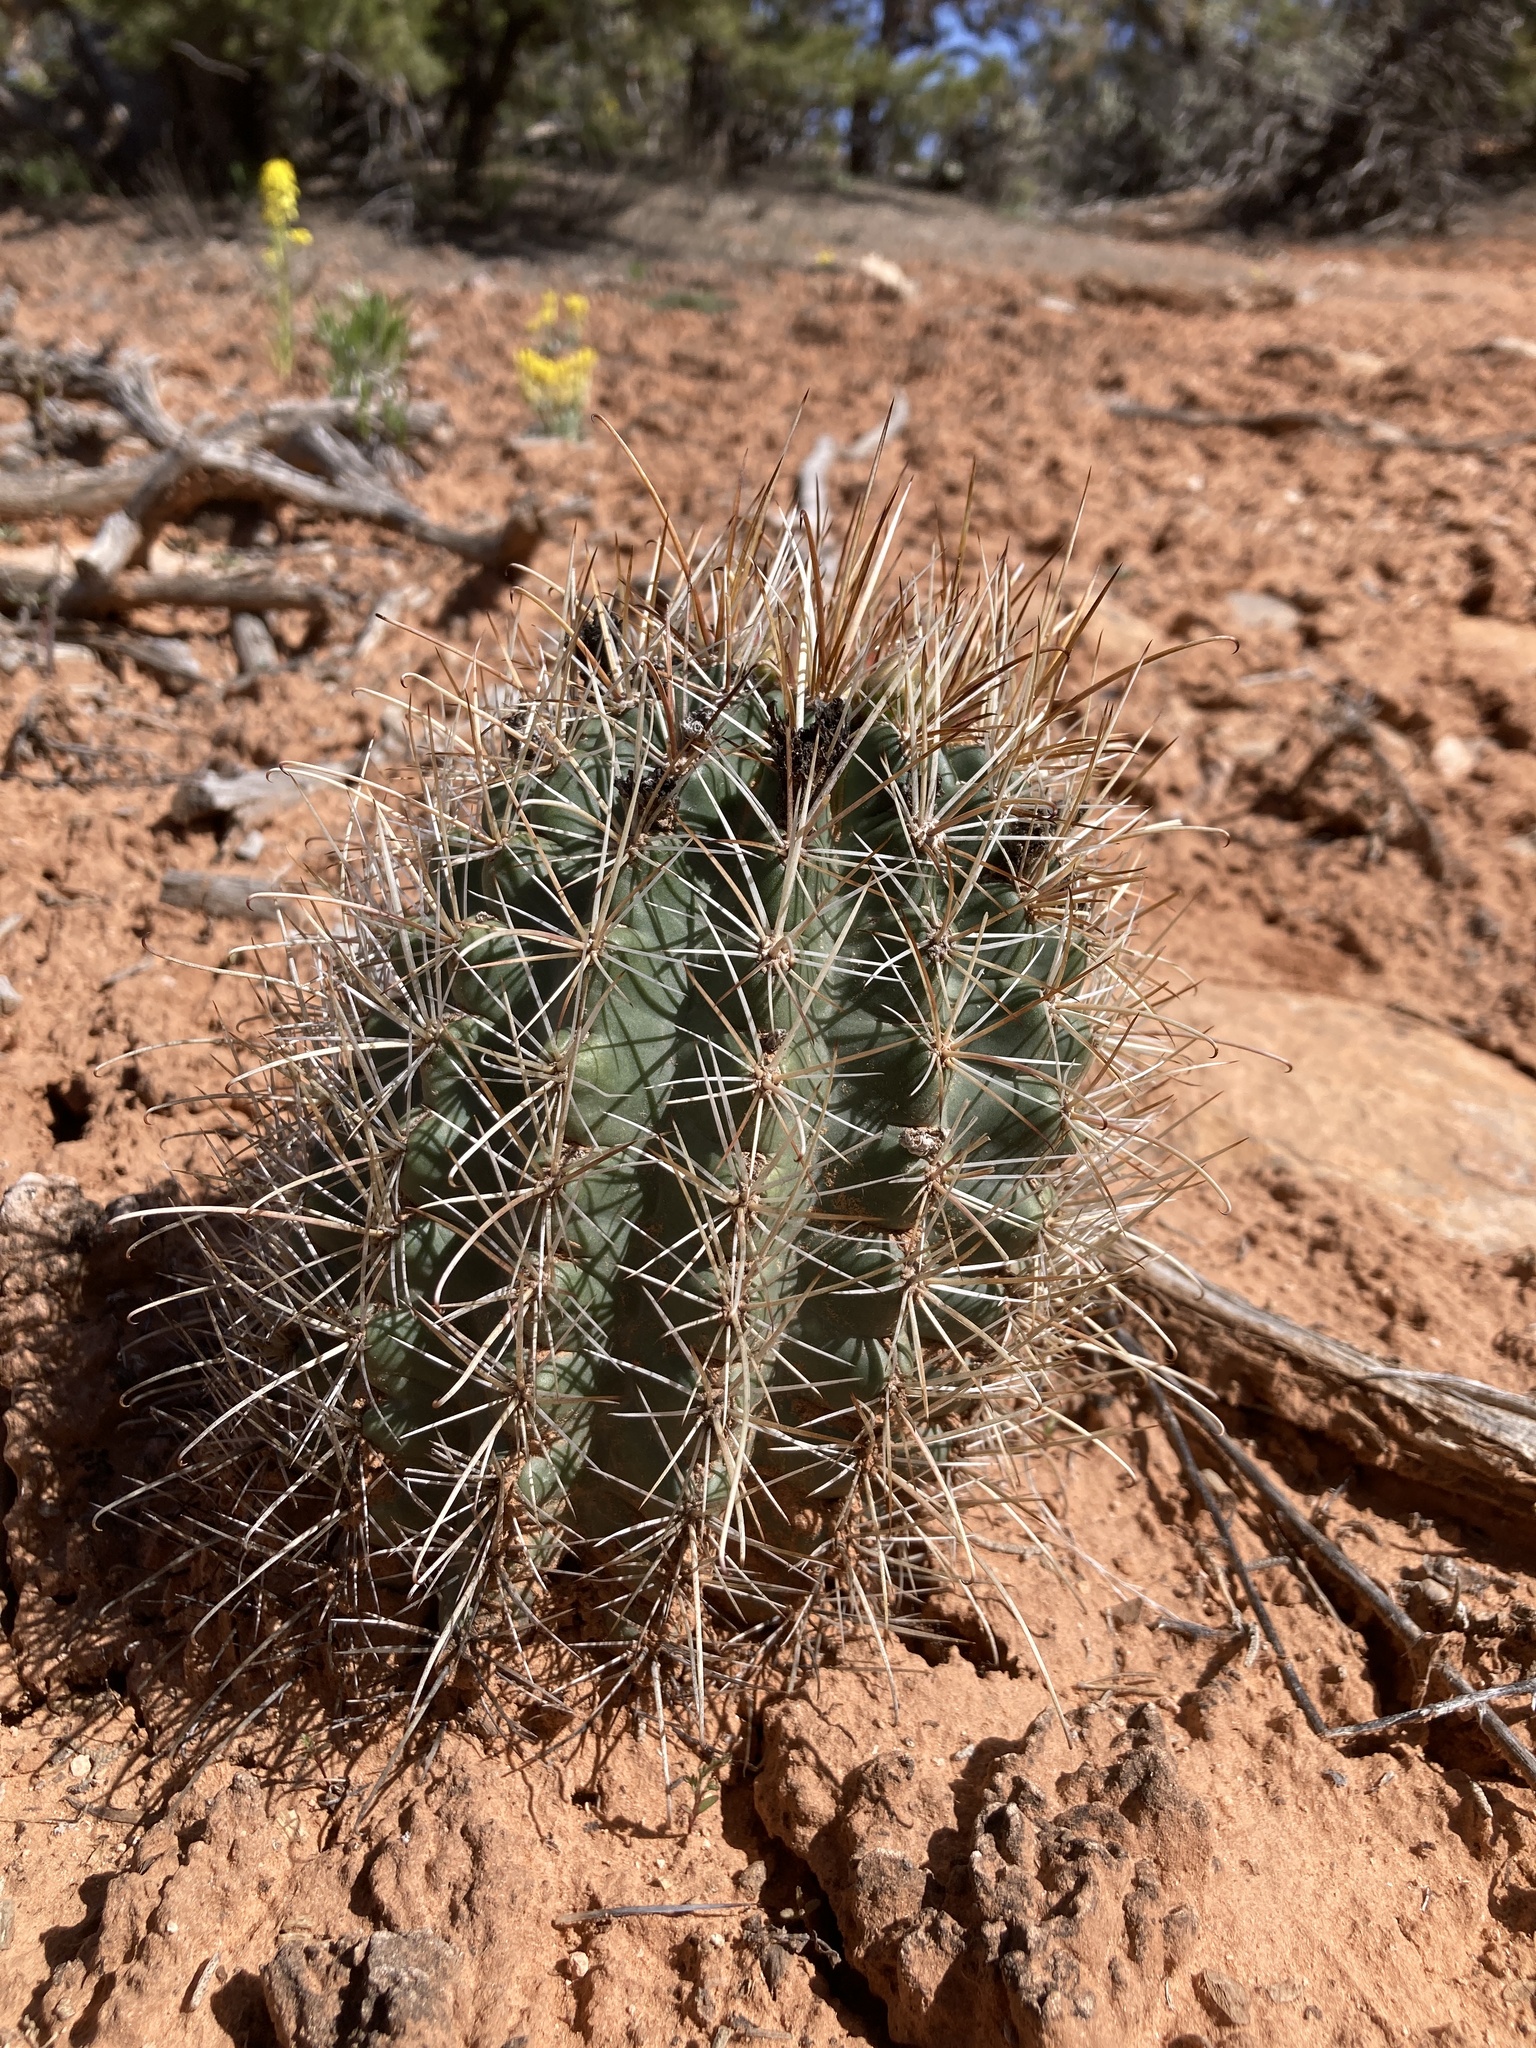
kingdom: Plantae
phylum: Tracheophyta
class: Magnoliopsida
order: Caryophyllales
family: Cactaceae
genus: Sclerocactus
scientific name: Sclerocactus parviflorus
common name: Small-flower fishhook cactus
